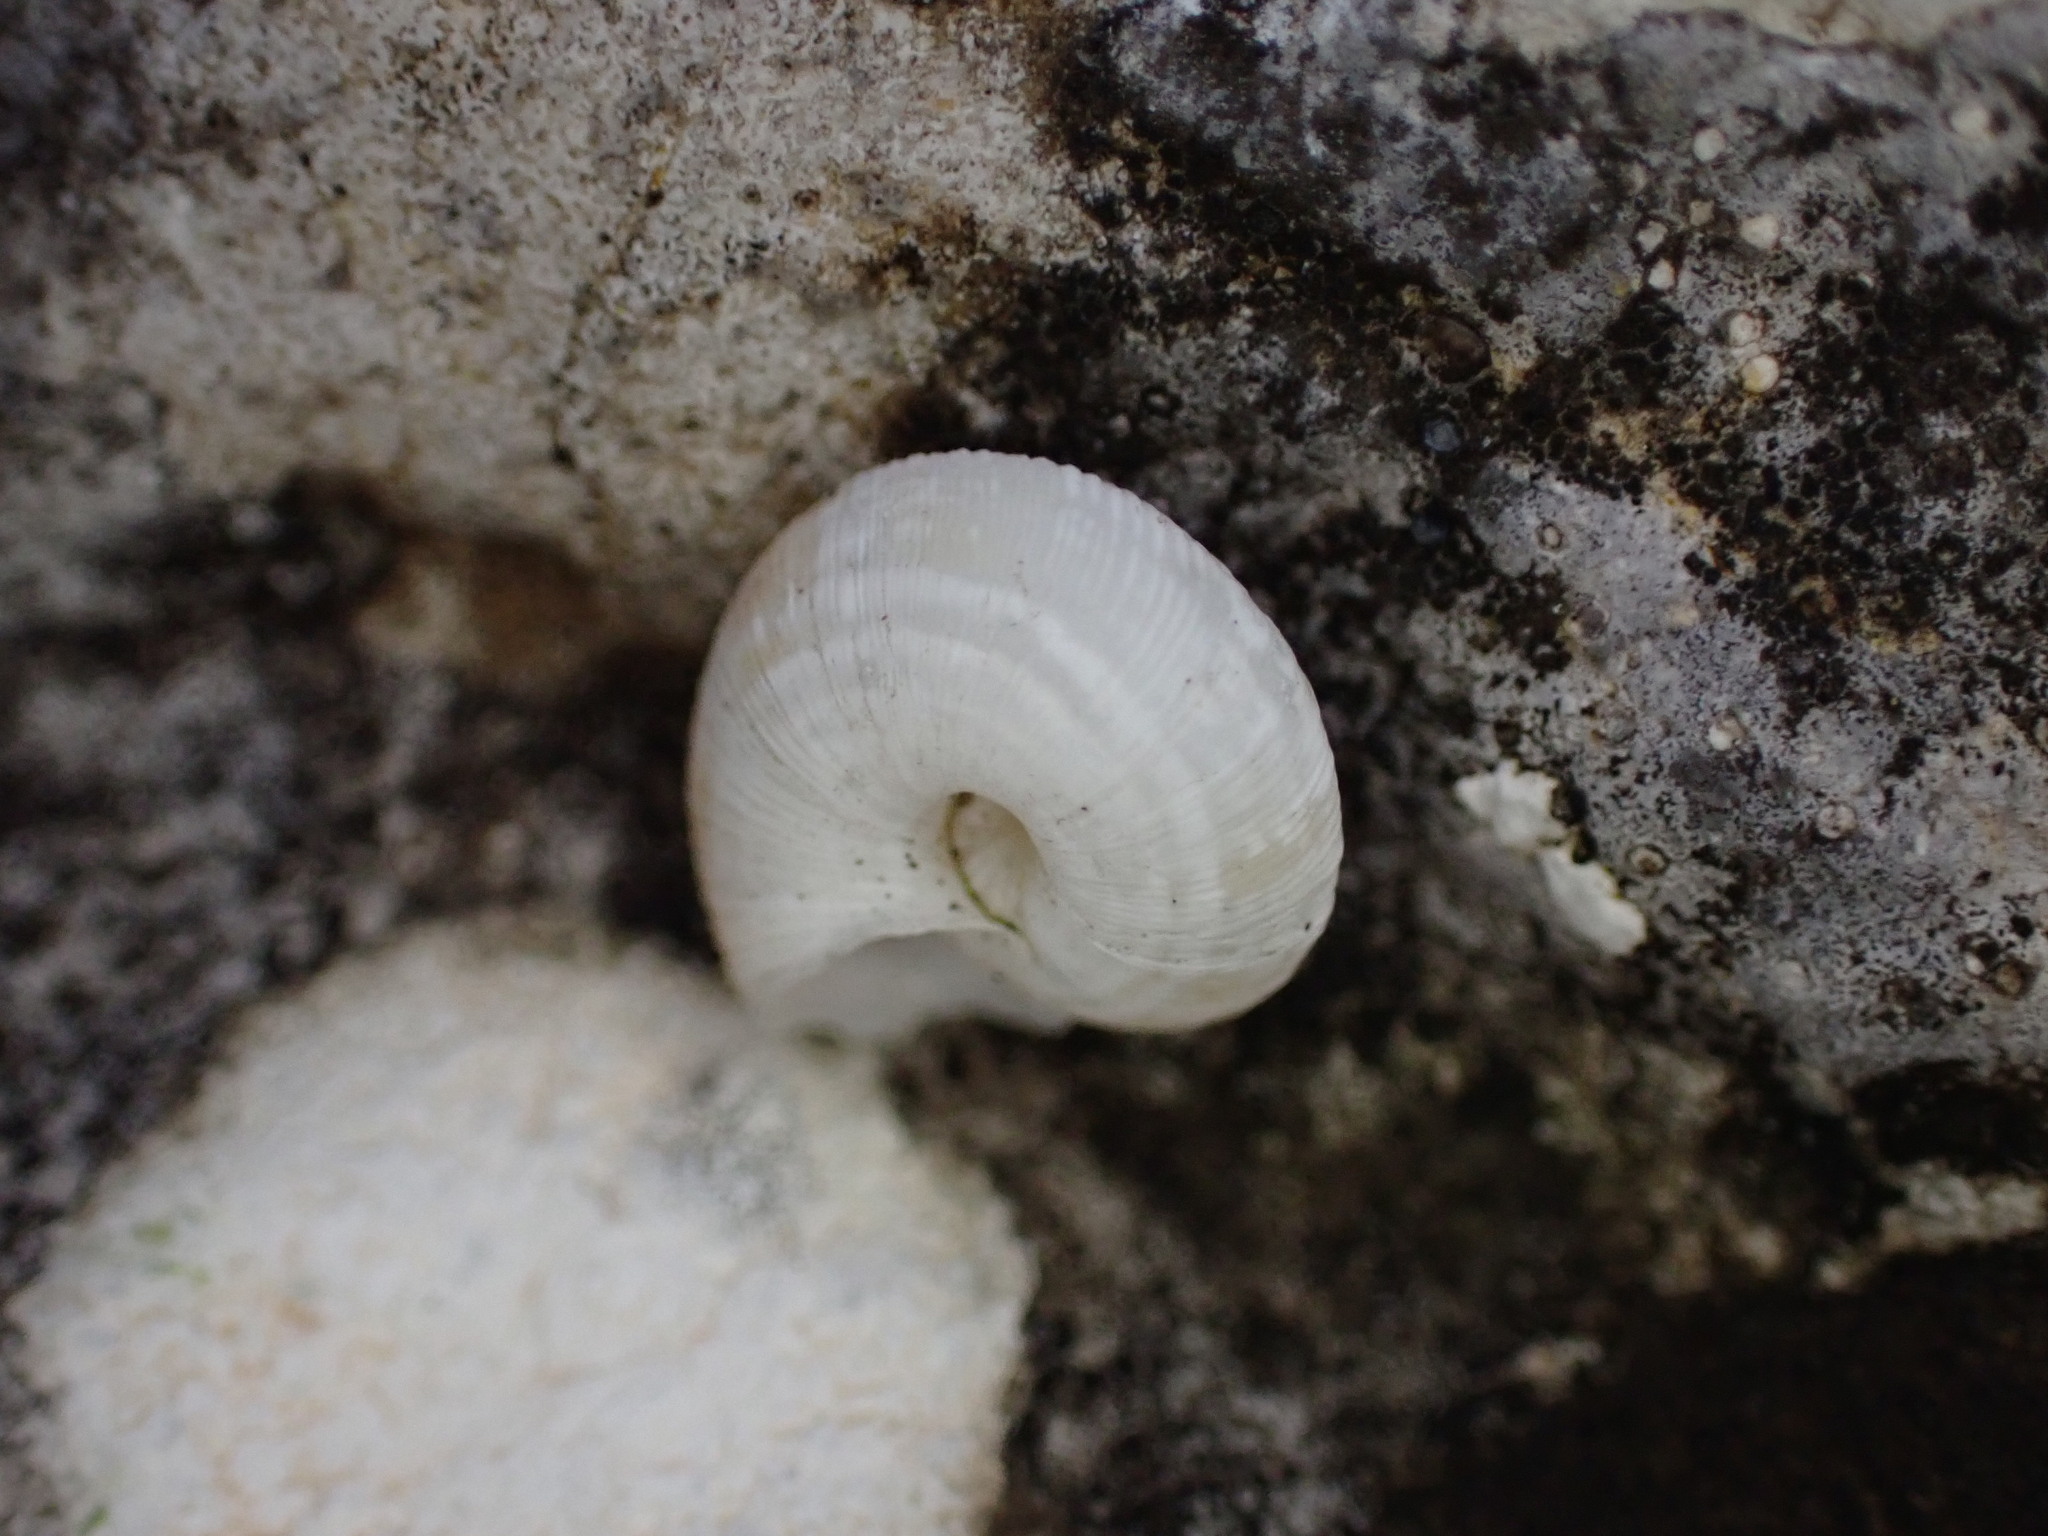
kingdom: Animalia
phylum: Mollusca
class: Gastropoda
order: Stylommatophora
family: Geomitridae
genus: Candidula
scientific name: Candidula unifasciata
